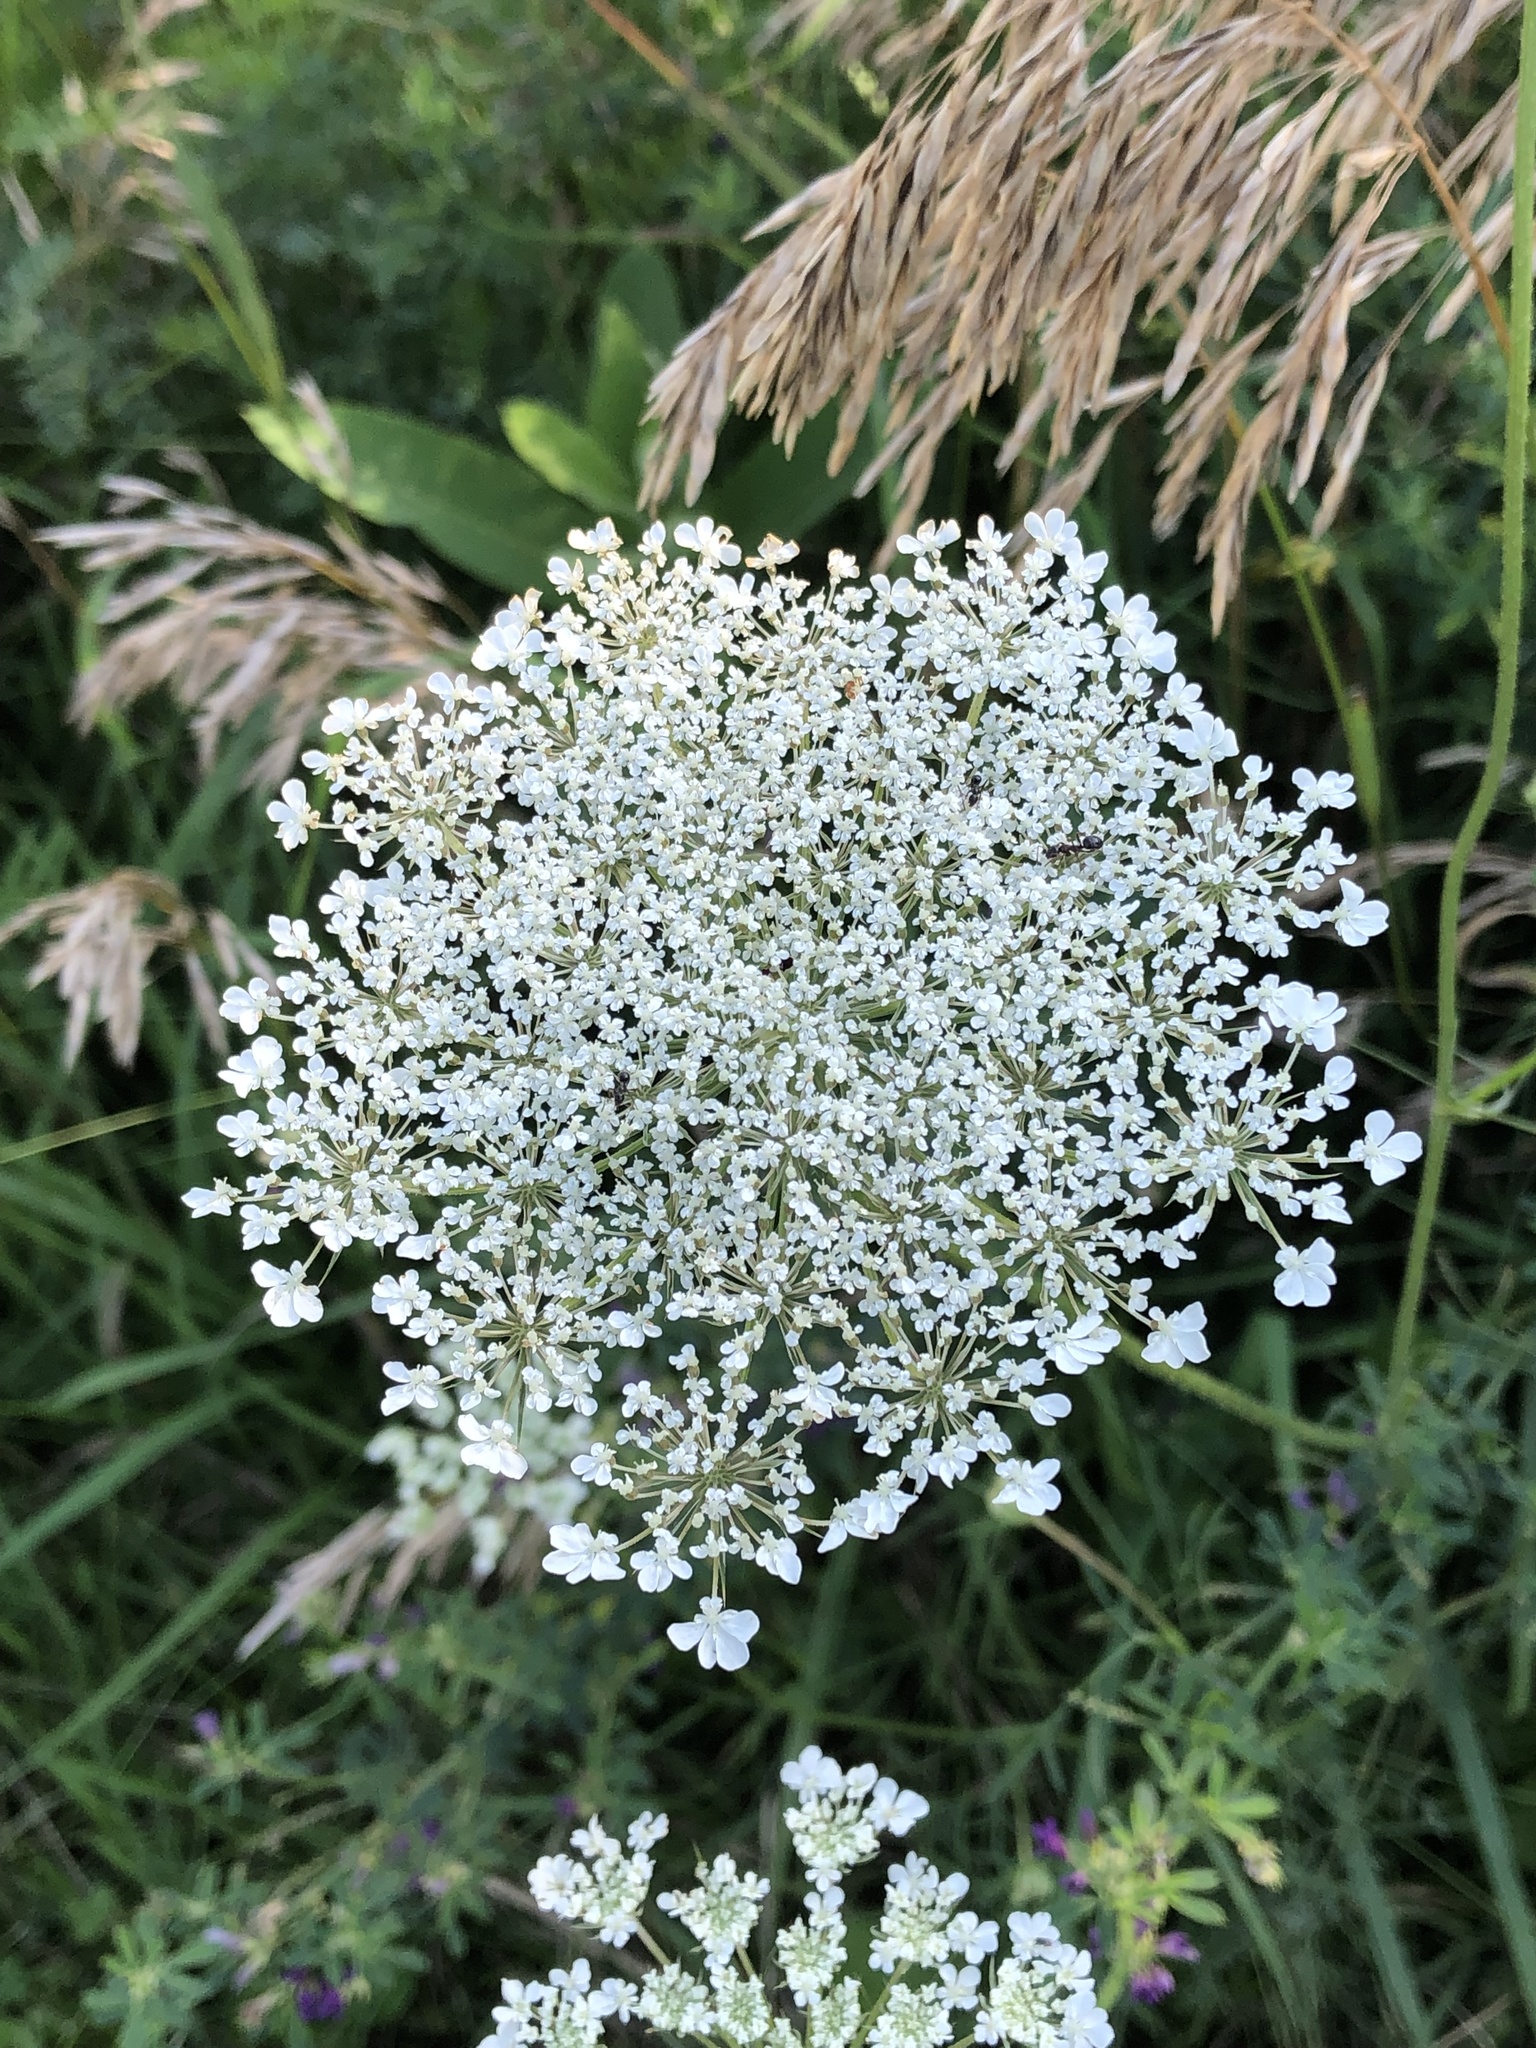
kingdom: Plantae
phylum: Tracheophyta
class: Magnoliopsida
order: Apiales
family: Apiaceae
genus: Daucus
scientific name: Daucus carota
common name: Wild carrot
